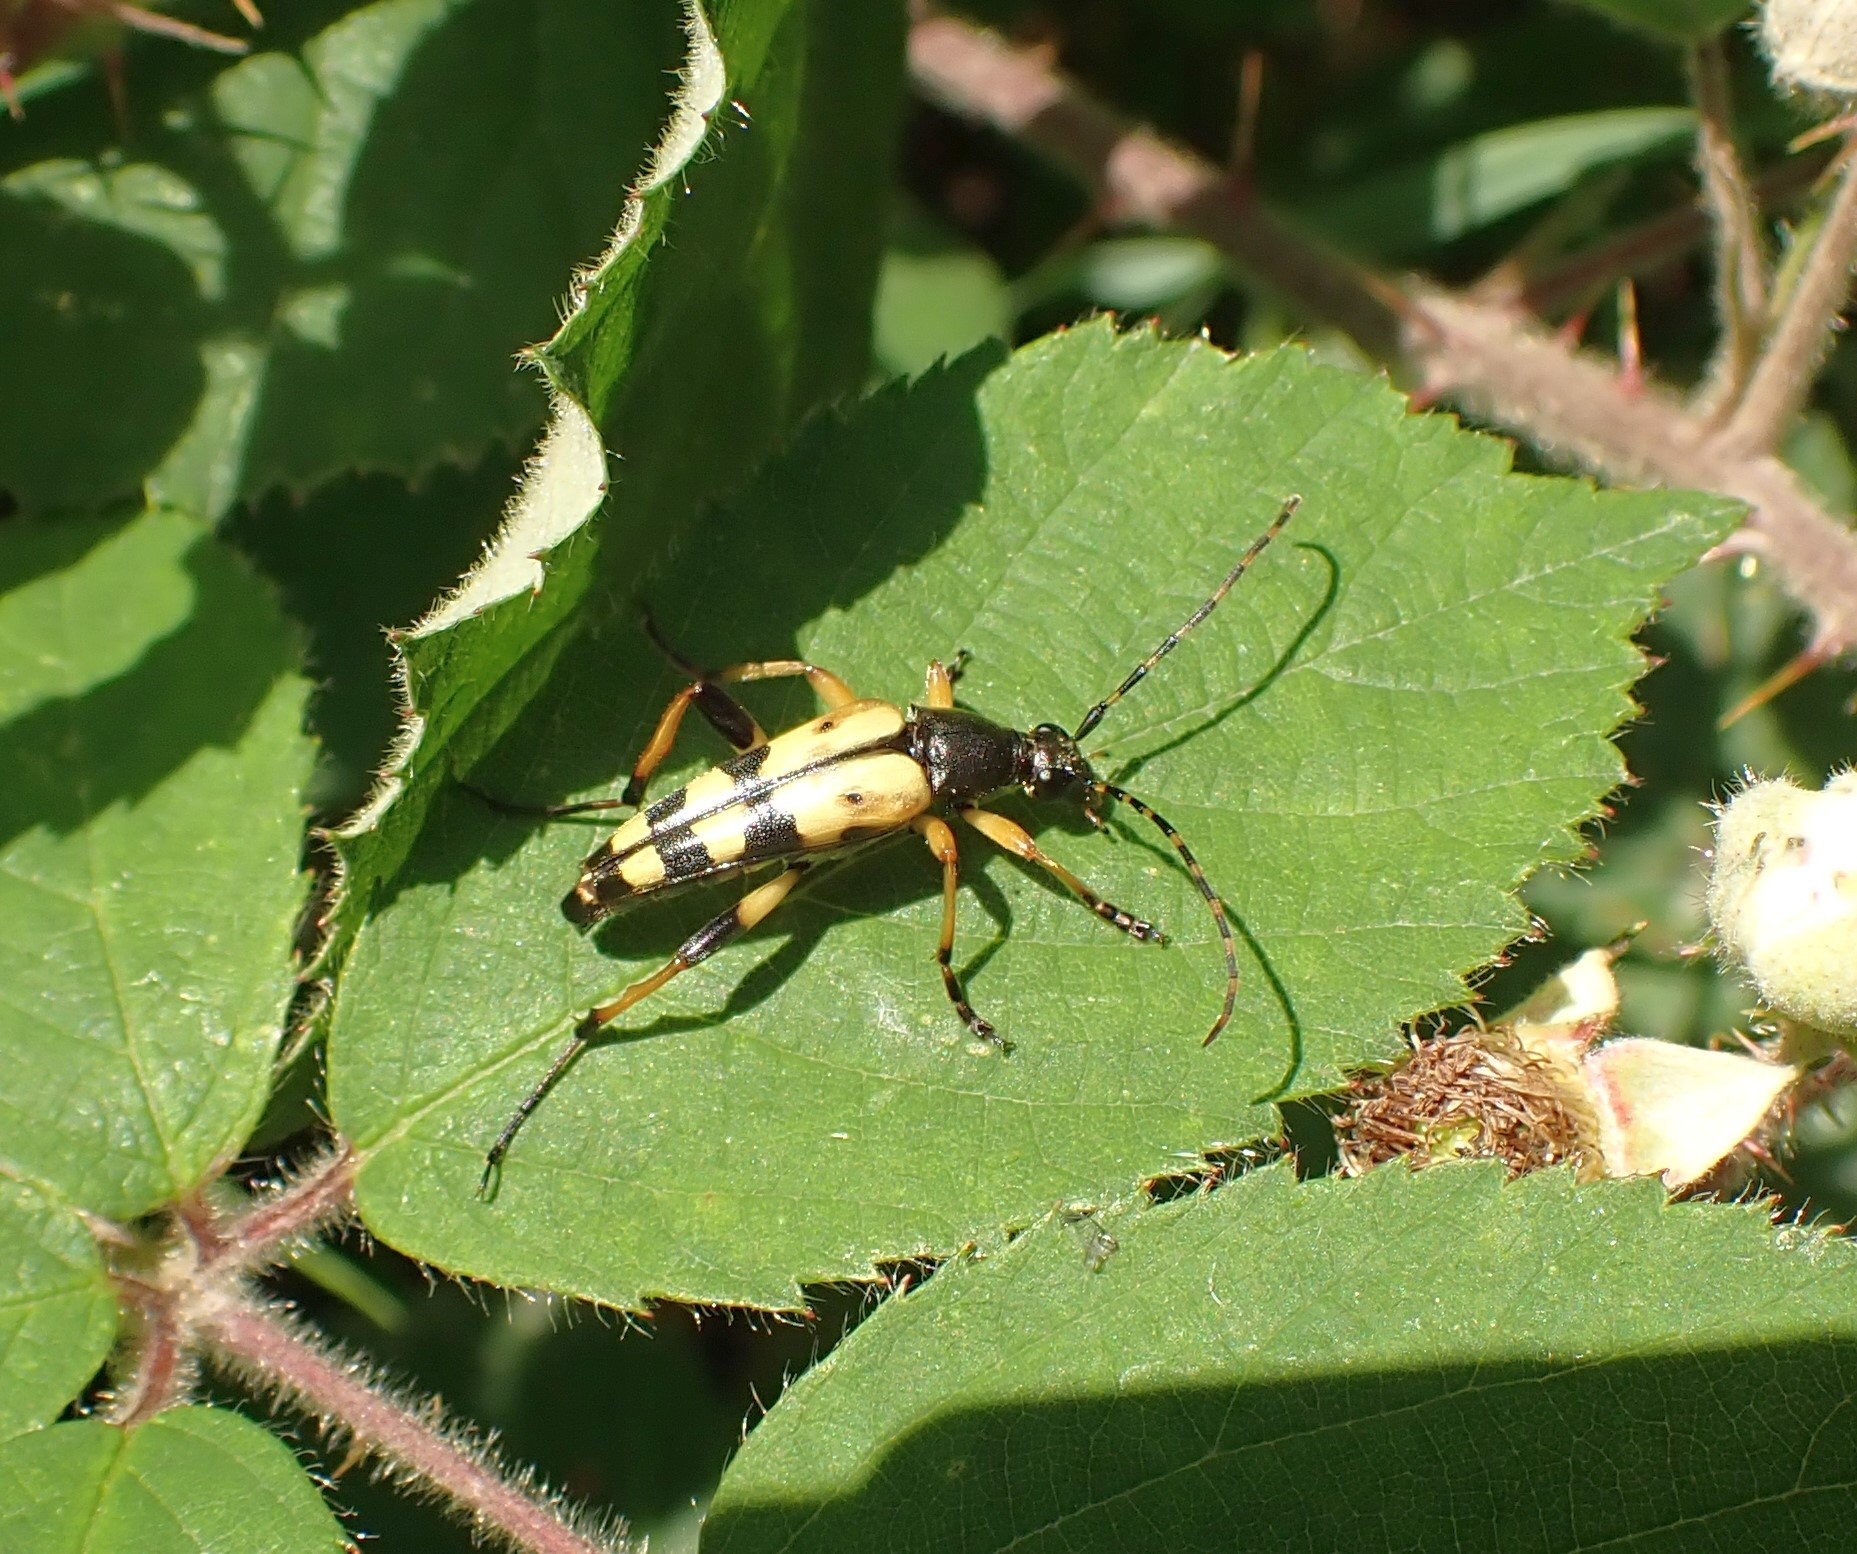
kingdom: Animalia
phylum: Arthropoda
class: Insecta
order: Coleoptera
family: Cerambycidae
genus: Rutpela
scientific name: Rutpela maculata
